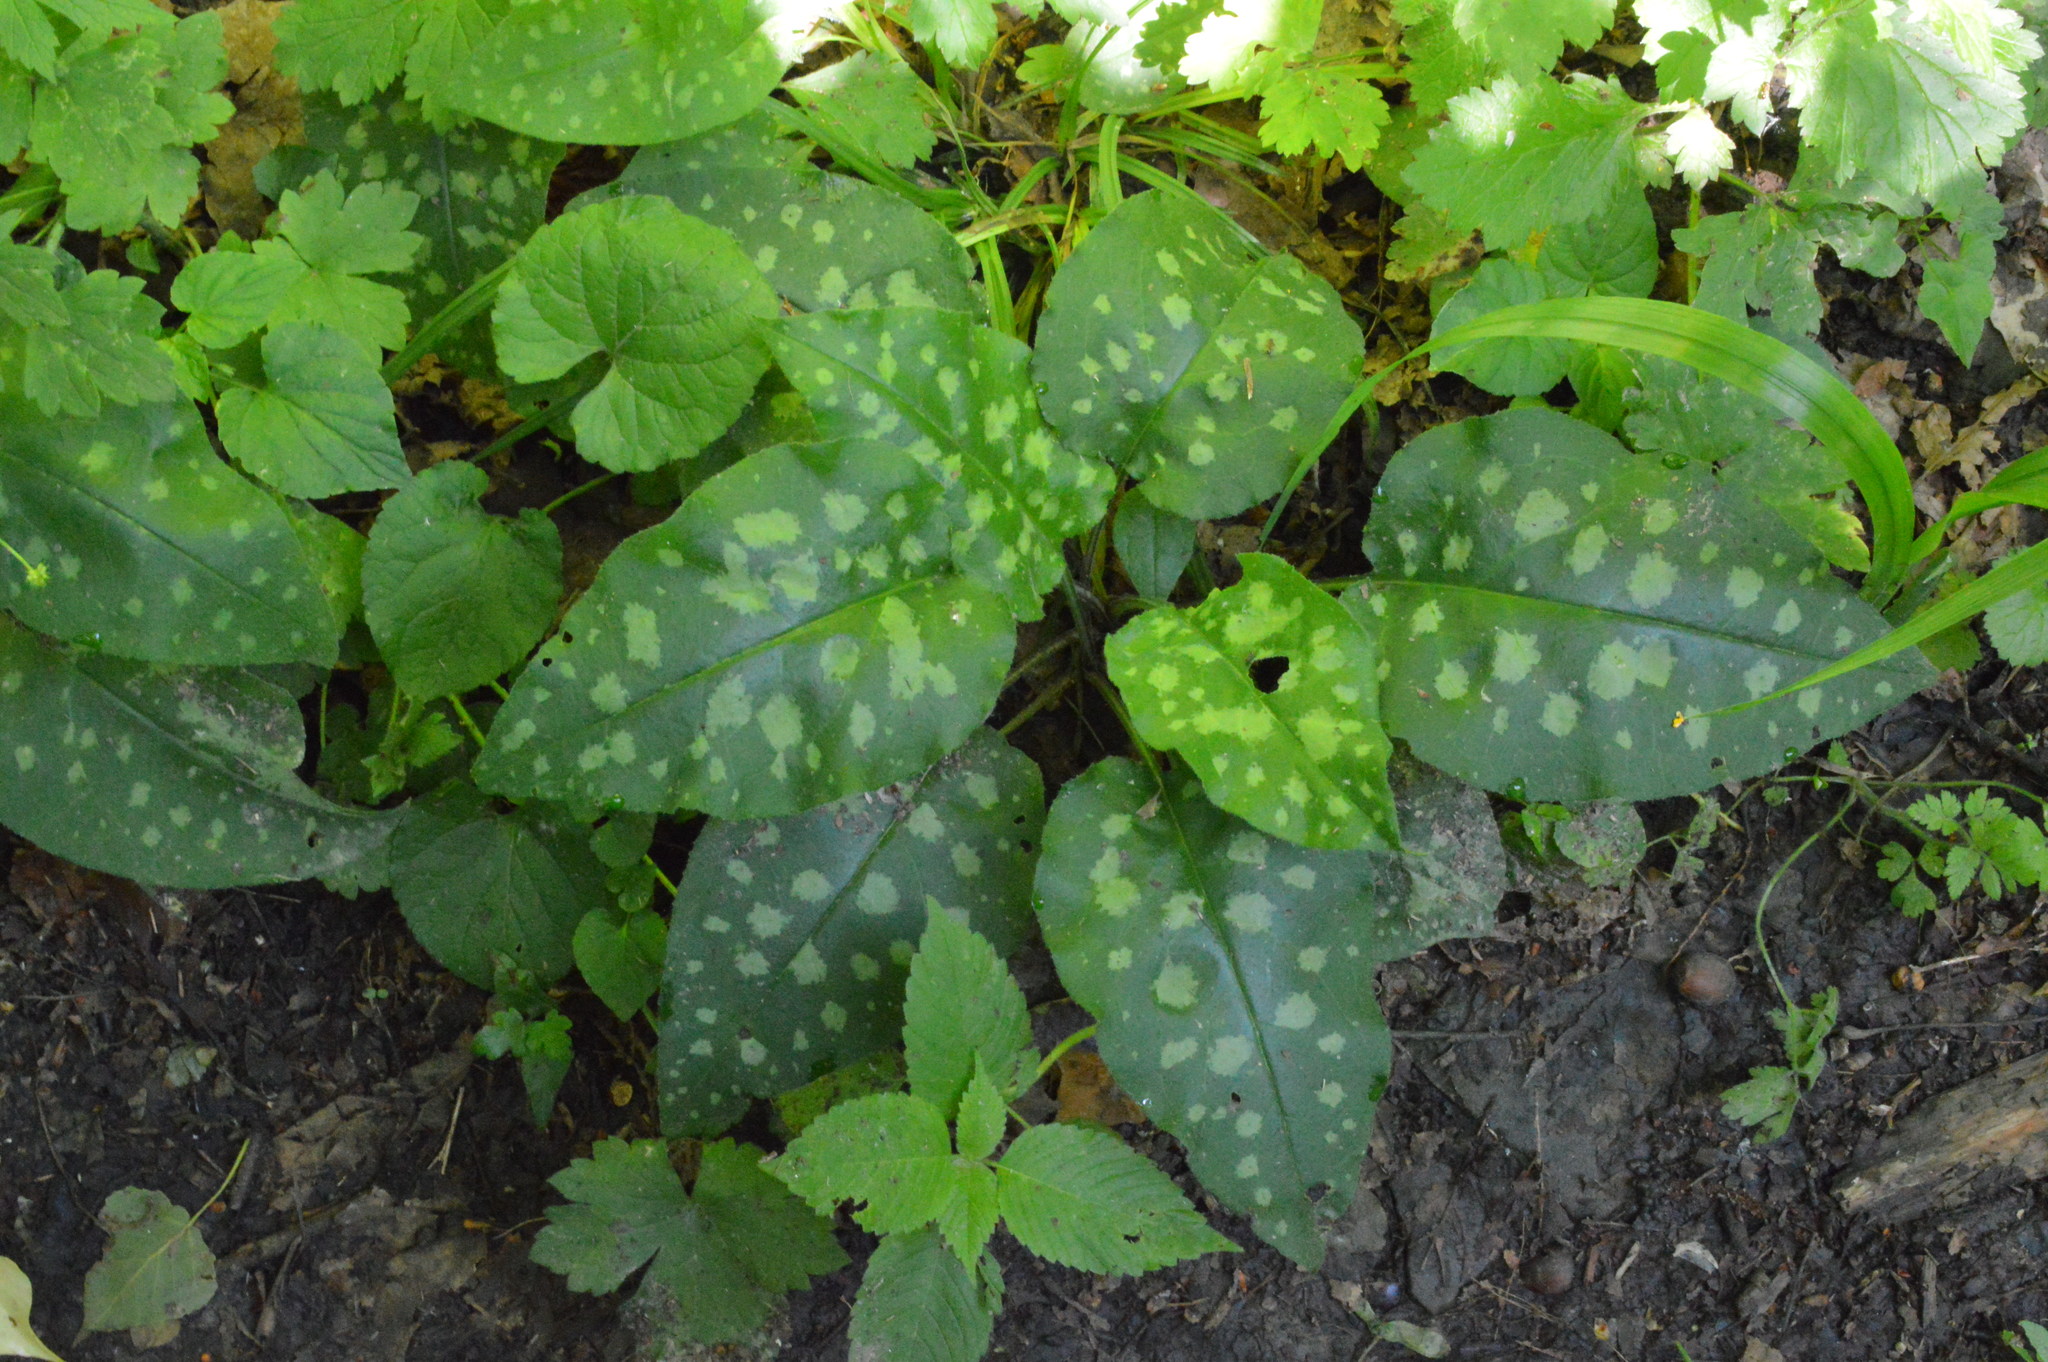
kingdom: Plantae
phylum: Tracheophyta
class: Magnoliopsida
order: Boraginales
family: Boraginaceae
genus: Pulmonaria
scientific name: Pulmonaria officinalis
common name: Lungwort
